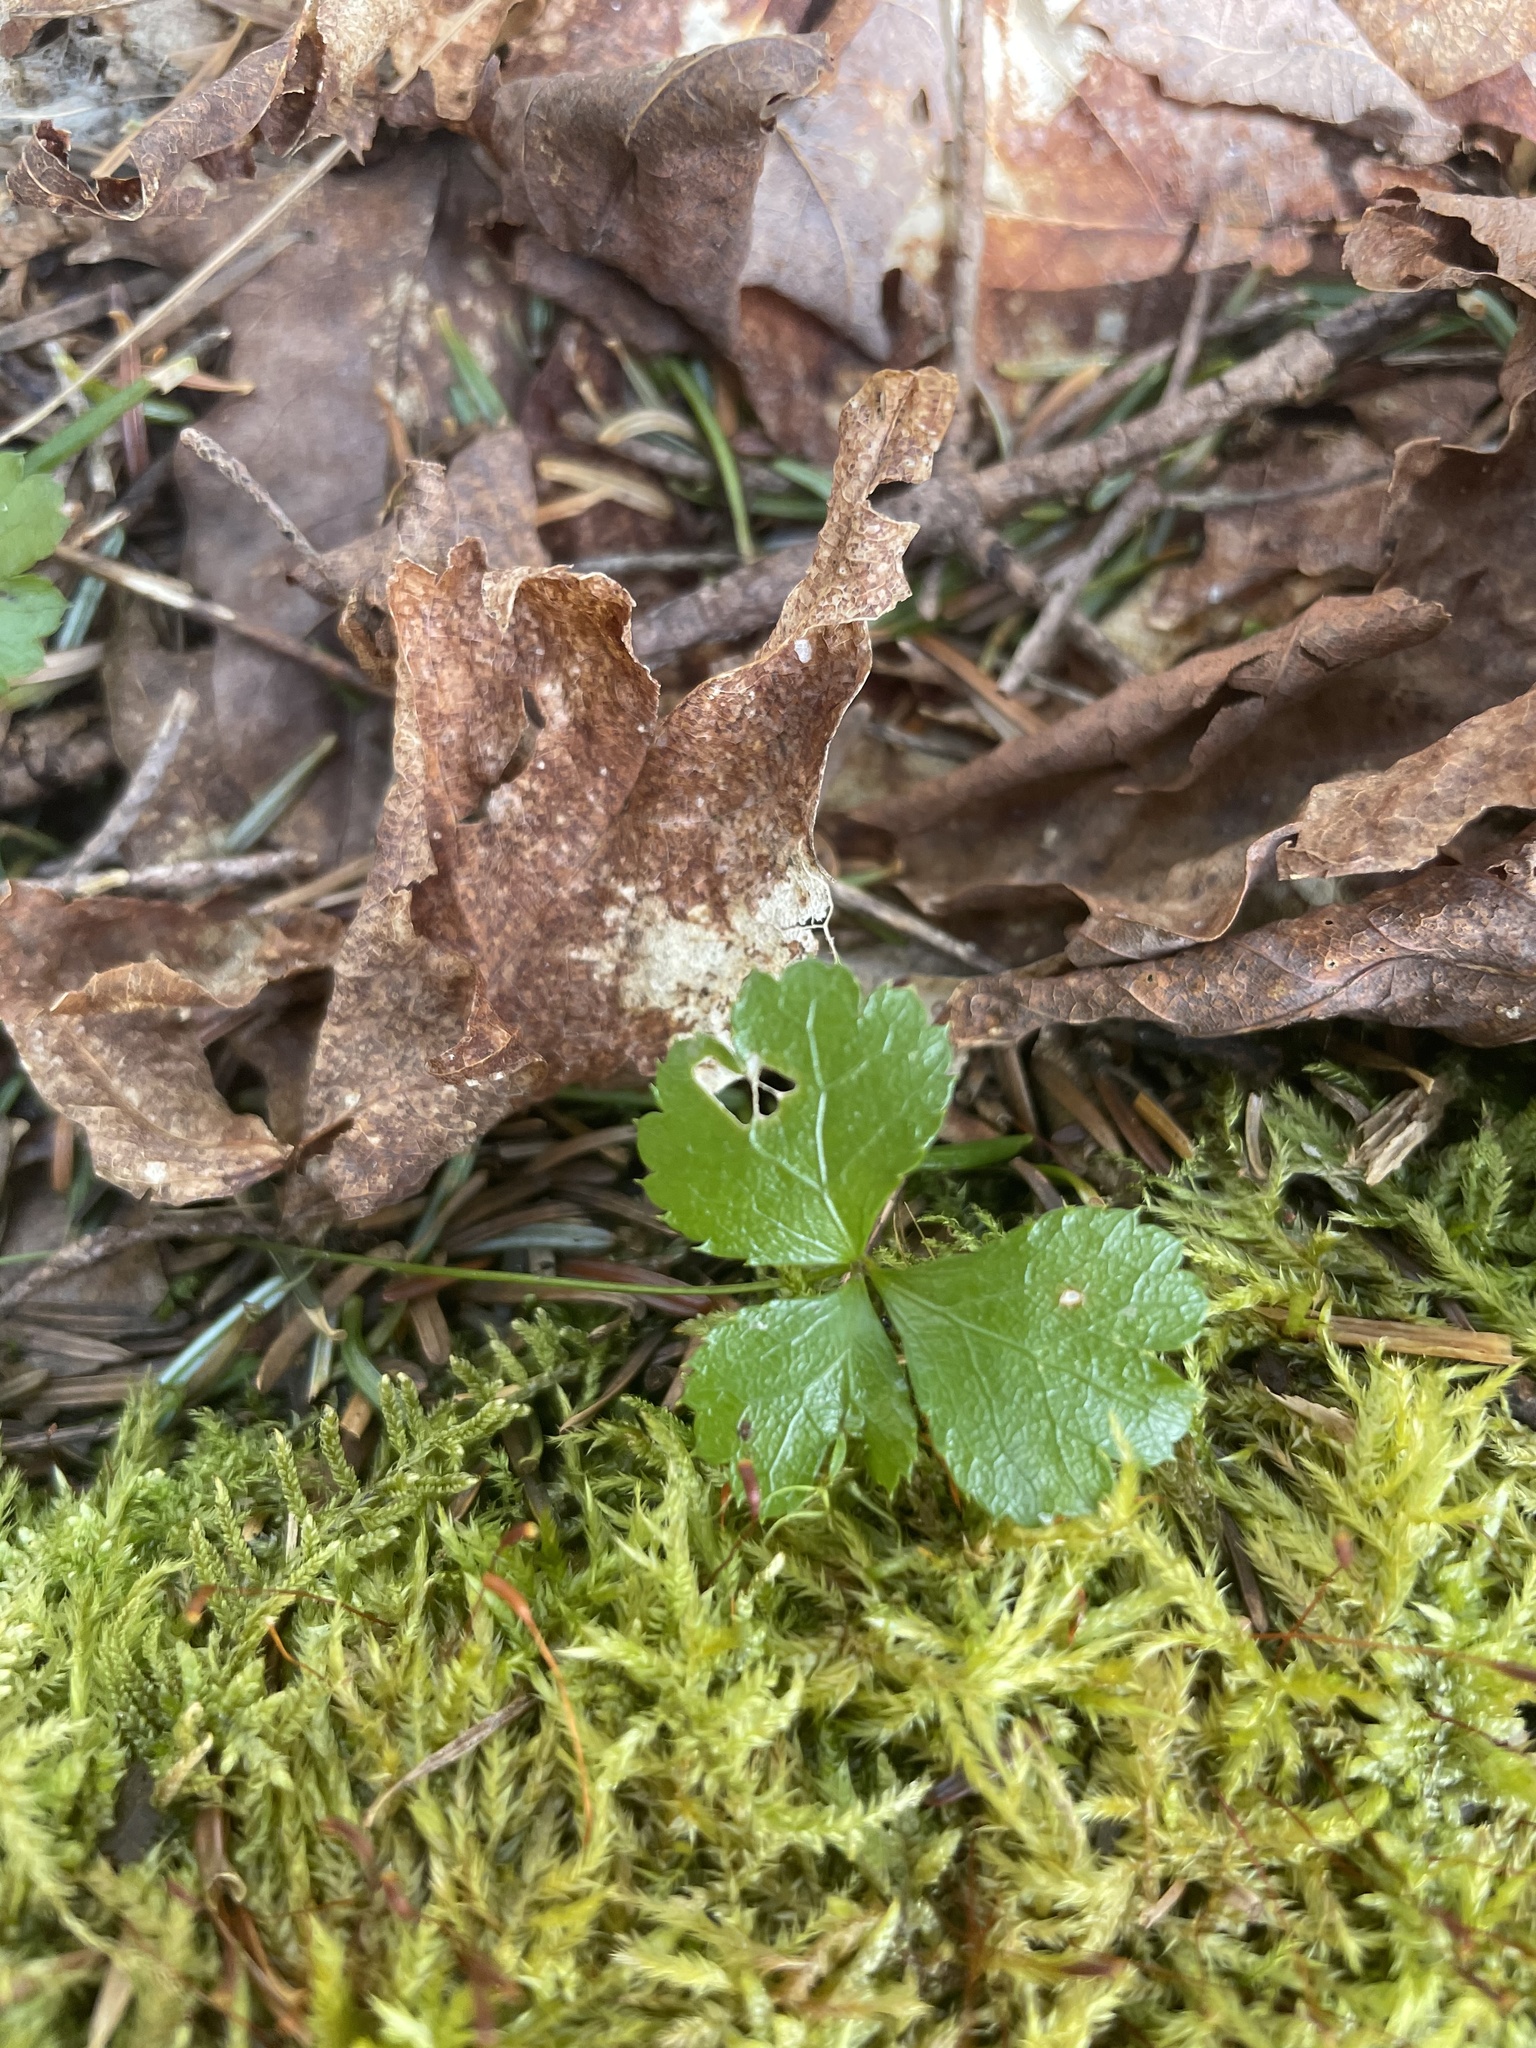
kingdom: Plantae
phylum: Tracheophyta
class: Magnoliopsida
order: Ranunculales
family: Ranunculaceae
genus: Coptis
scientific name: Coptis trifolia
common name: Canker-root
